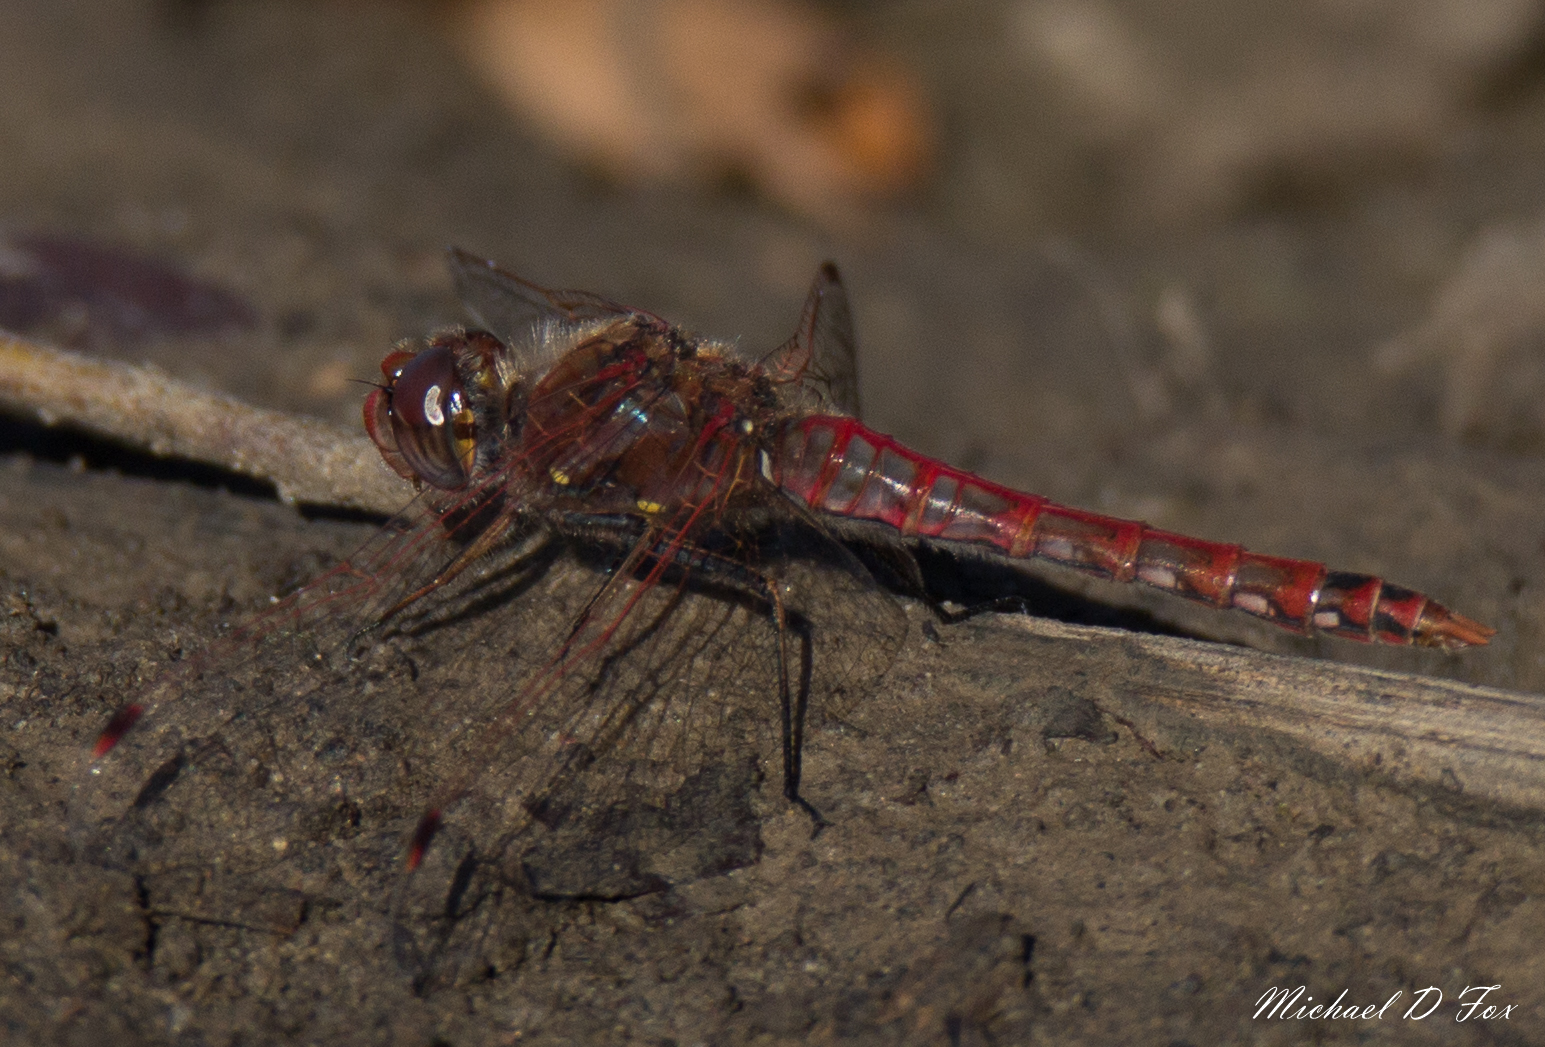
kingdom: Animalia
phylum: Arthropoda
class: Insecta
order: Odonata
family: Libellulidae
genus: Sympetrum
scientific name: Sympetrum corruptum
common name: Variegated meadowhawk
